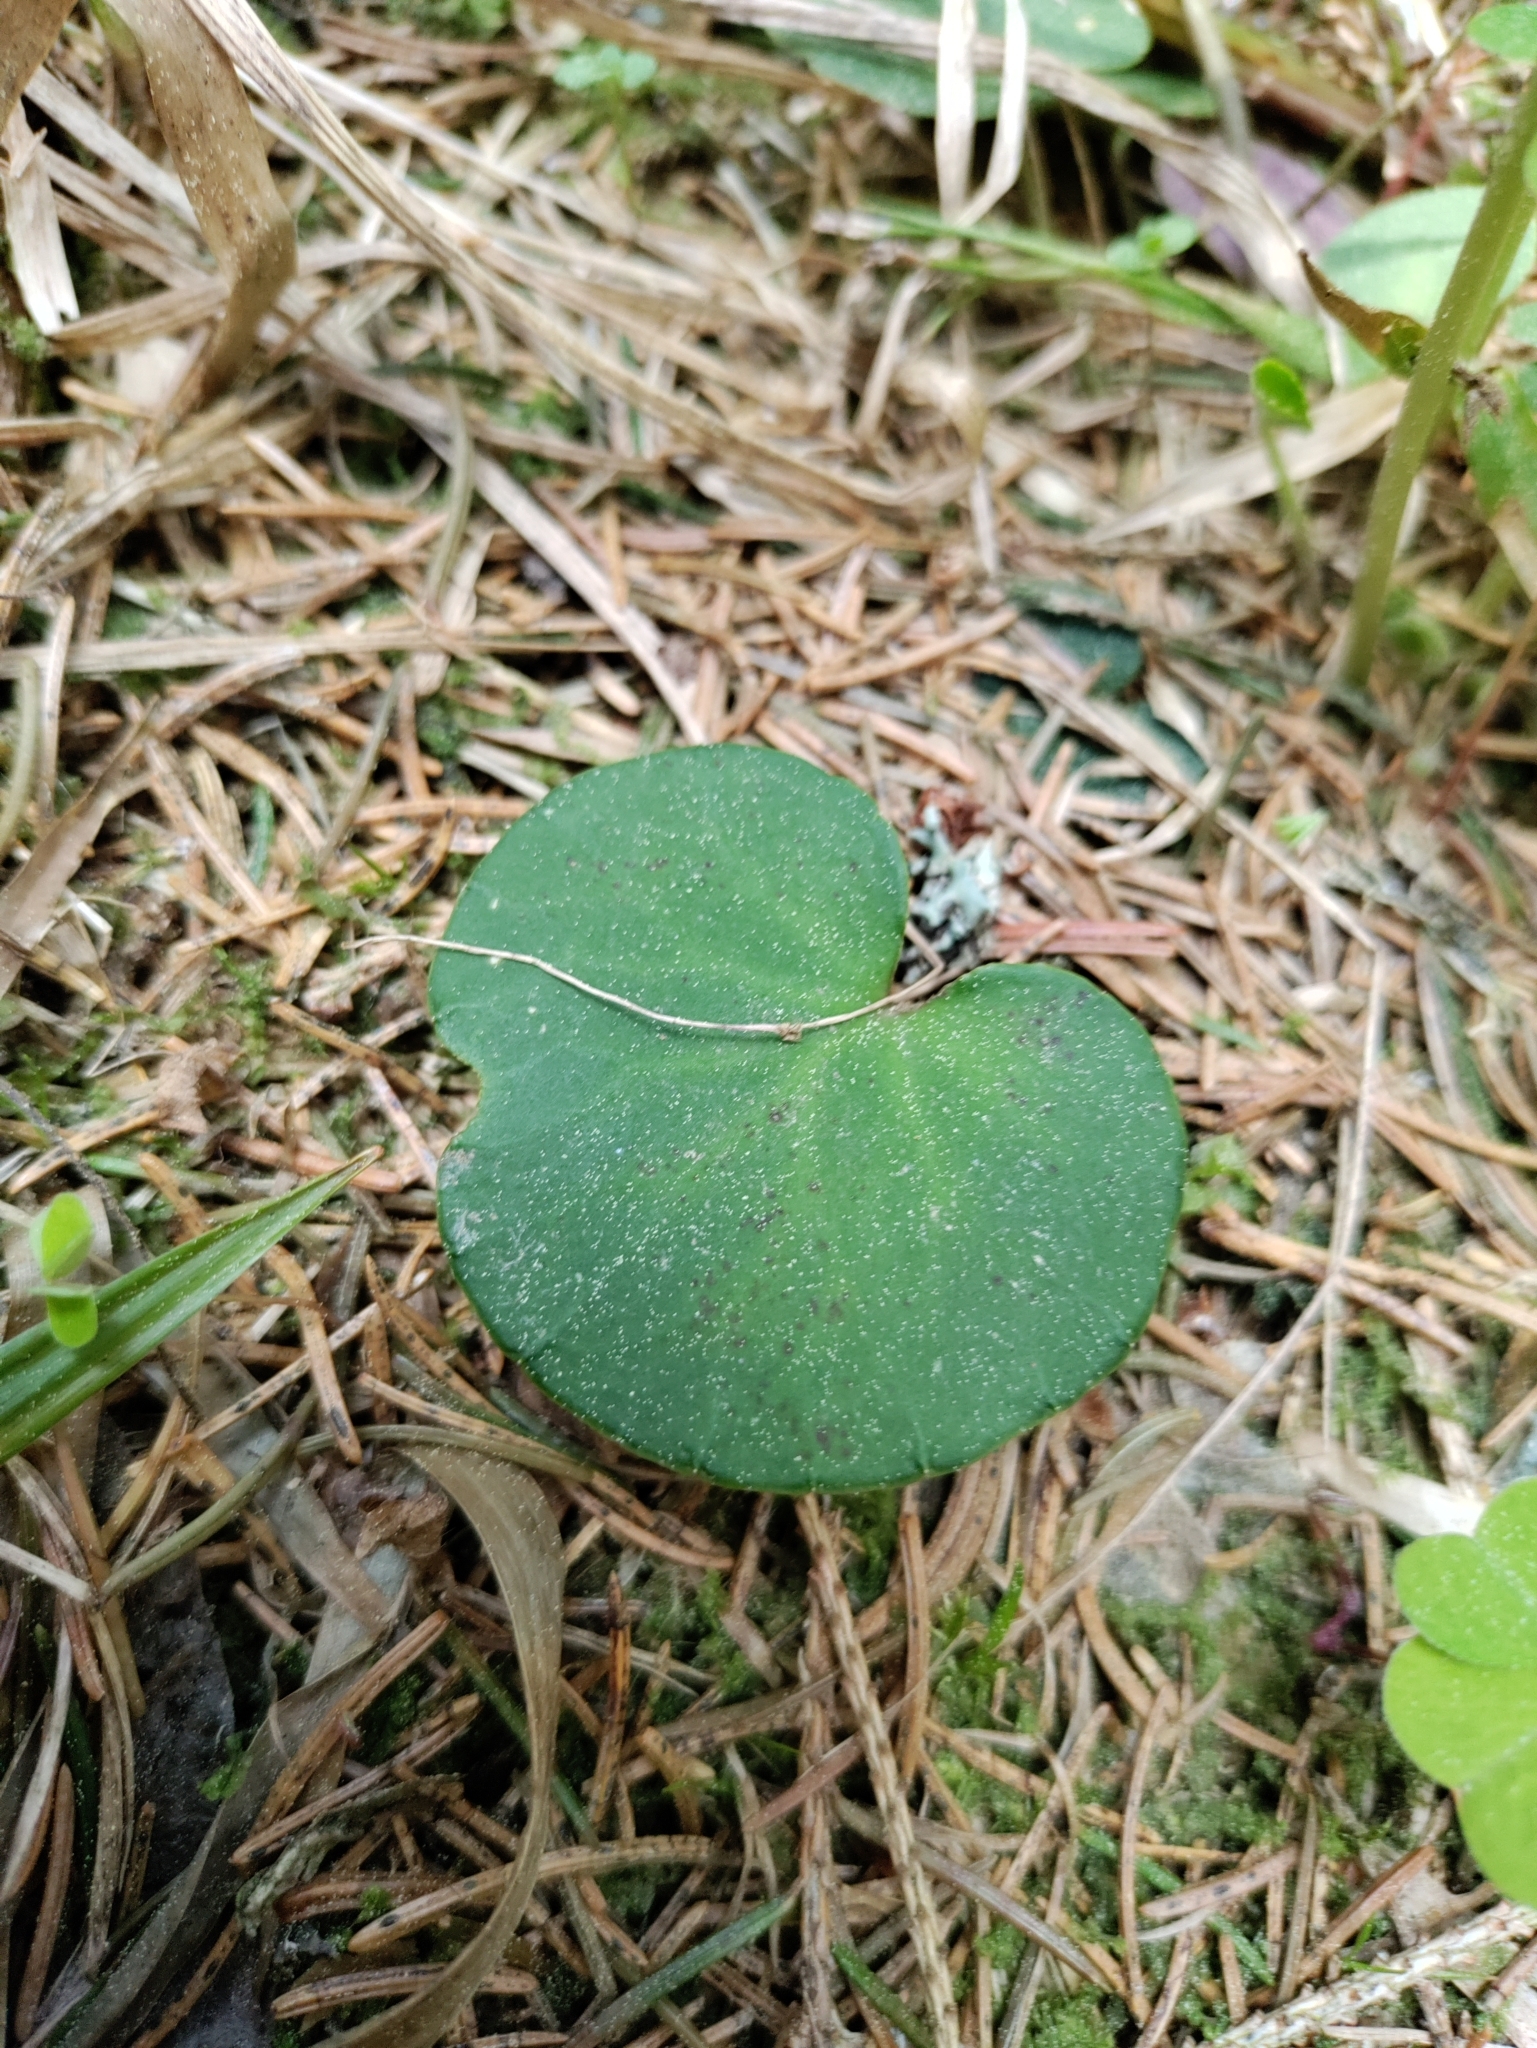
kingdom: Plantae
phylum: Tracheophyta
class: Magnoliopsida
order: Ericales
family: Primulaceae
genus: Soldanella
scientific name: Soldanella montana
